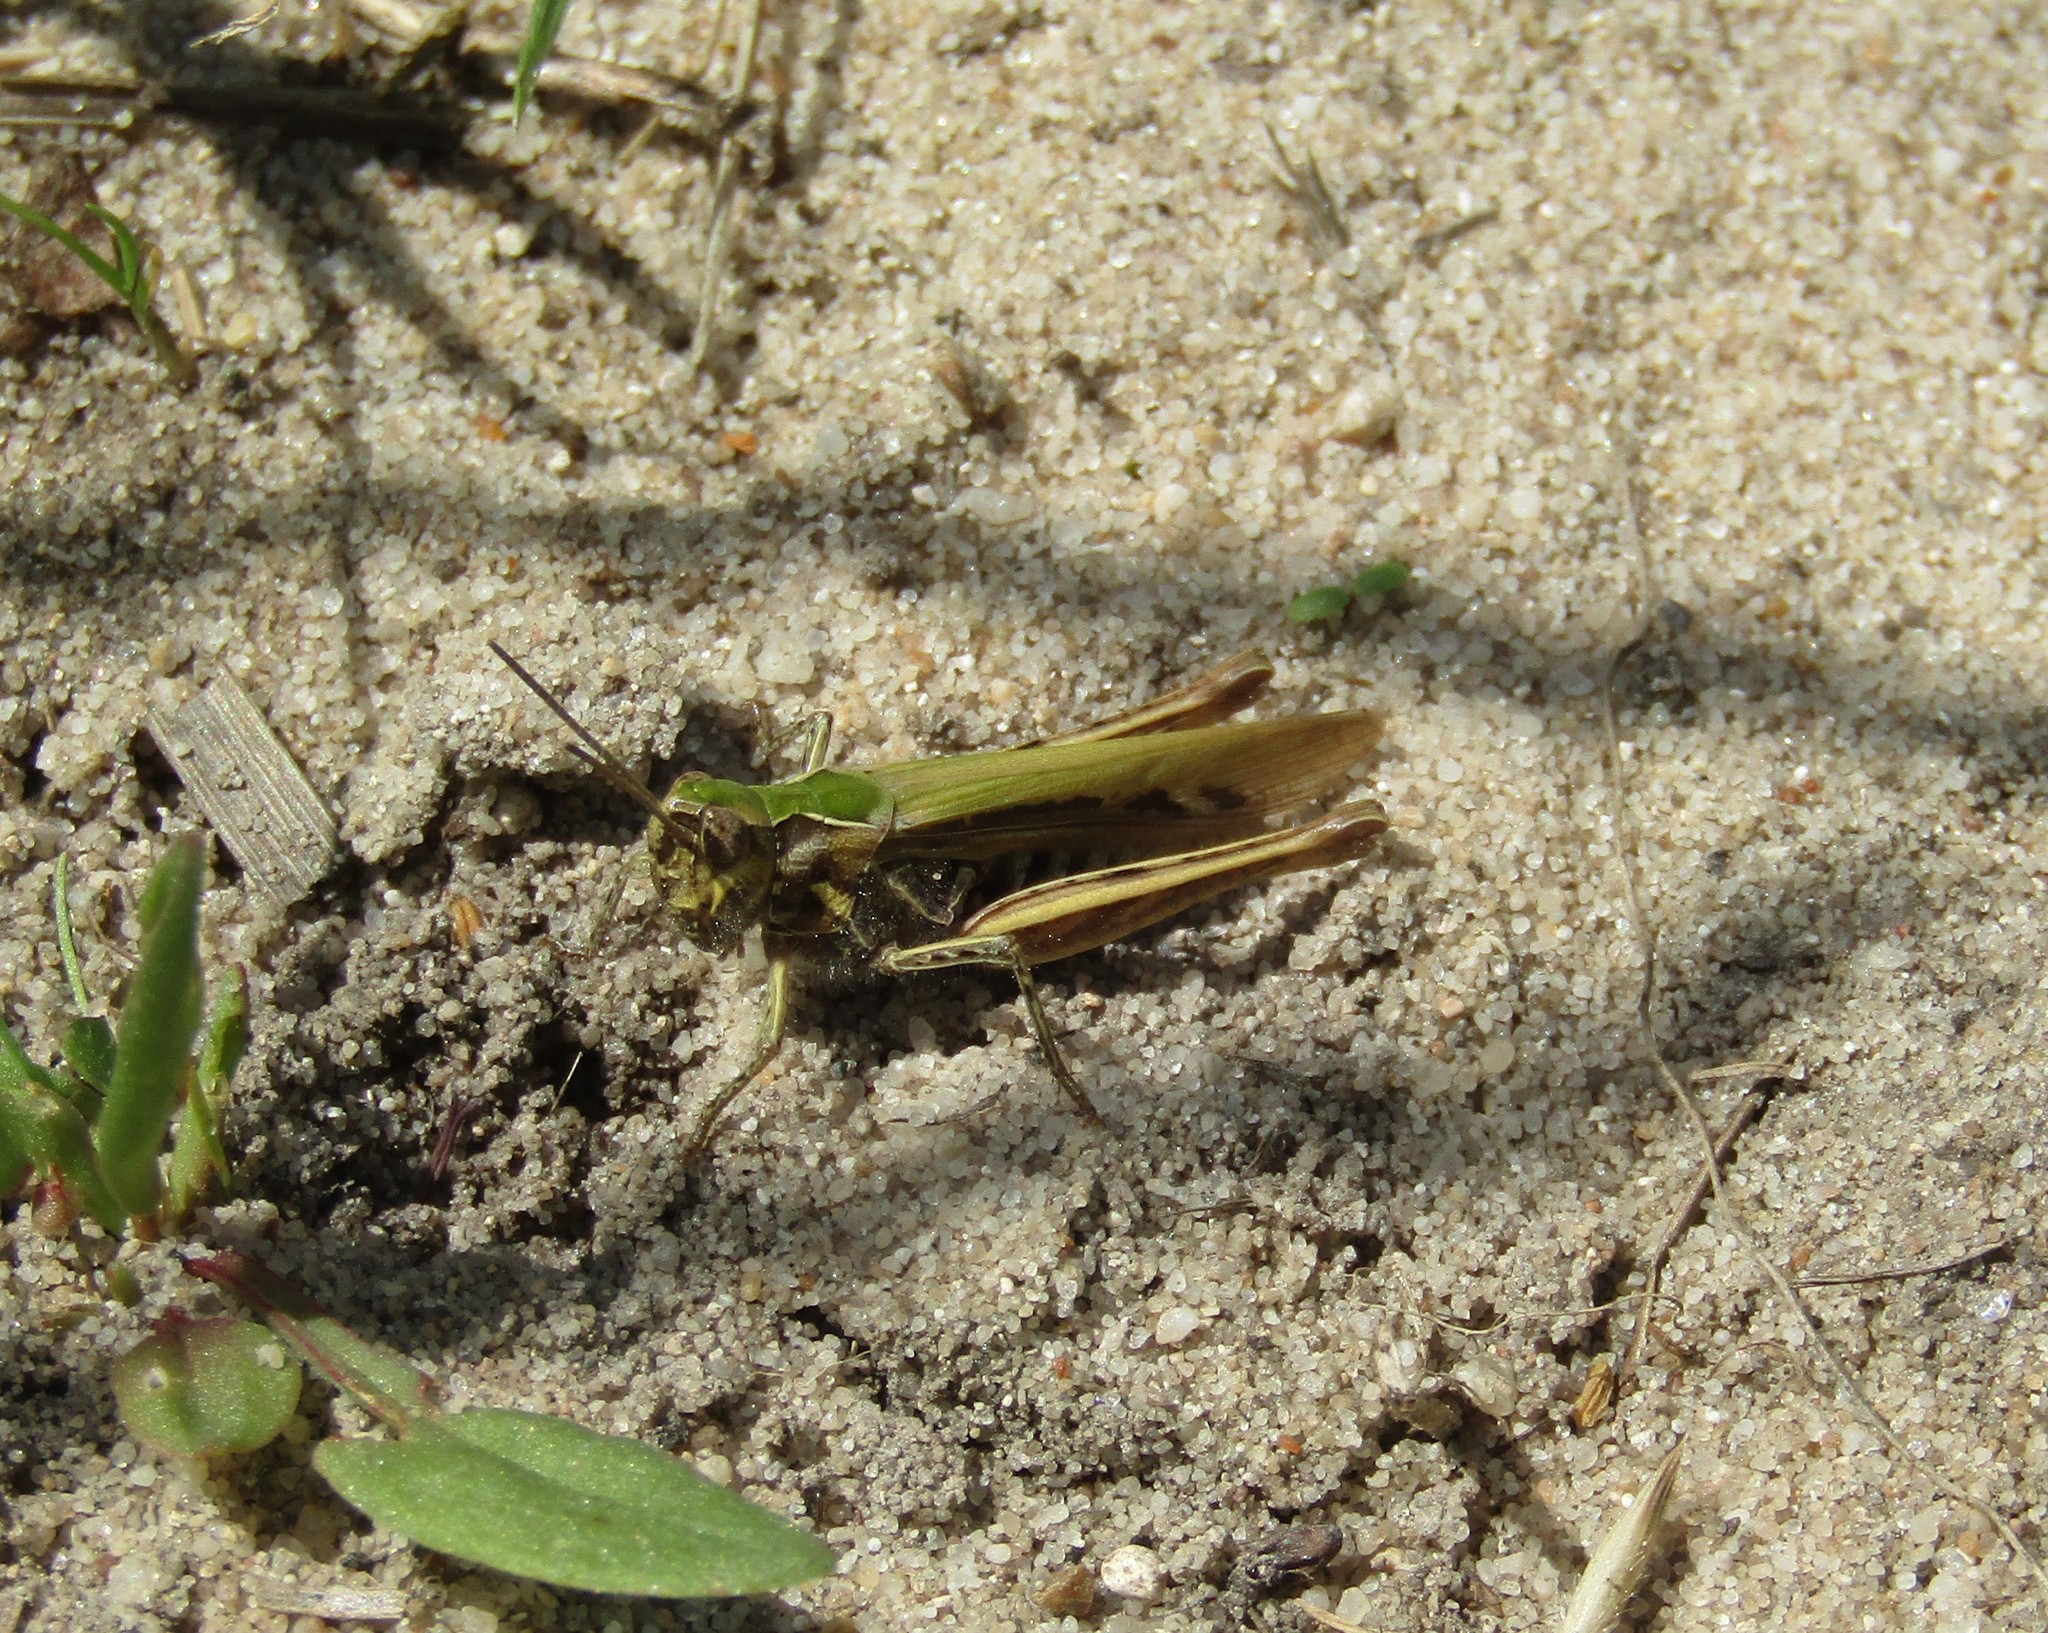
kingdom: Animalia
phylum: Arthropoda
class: Insecta
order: Orthoptera
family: Acrididae
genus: Chorthippus
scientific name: Chorthippus brunneus
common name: Field grasshopper
